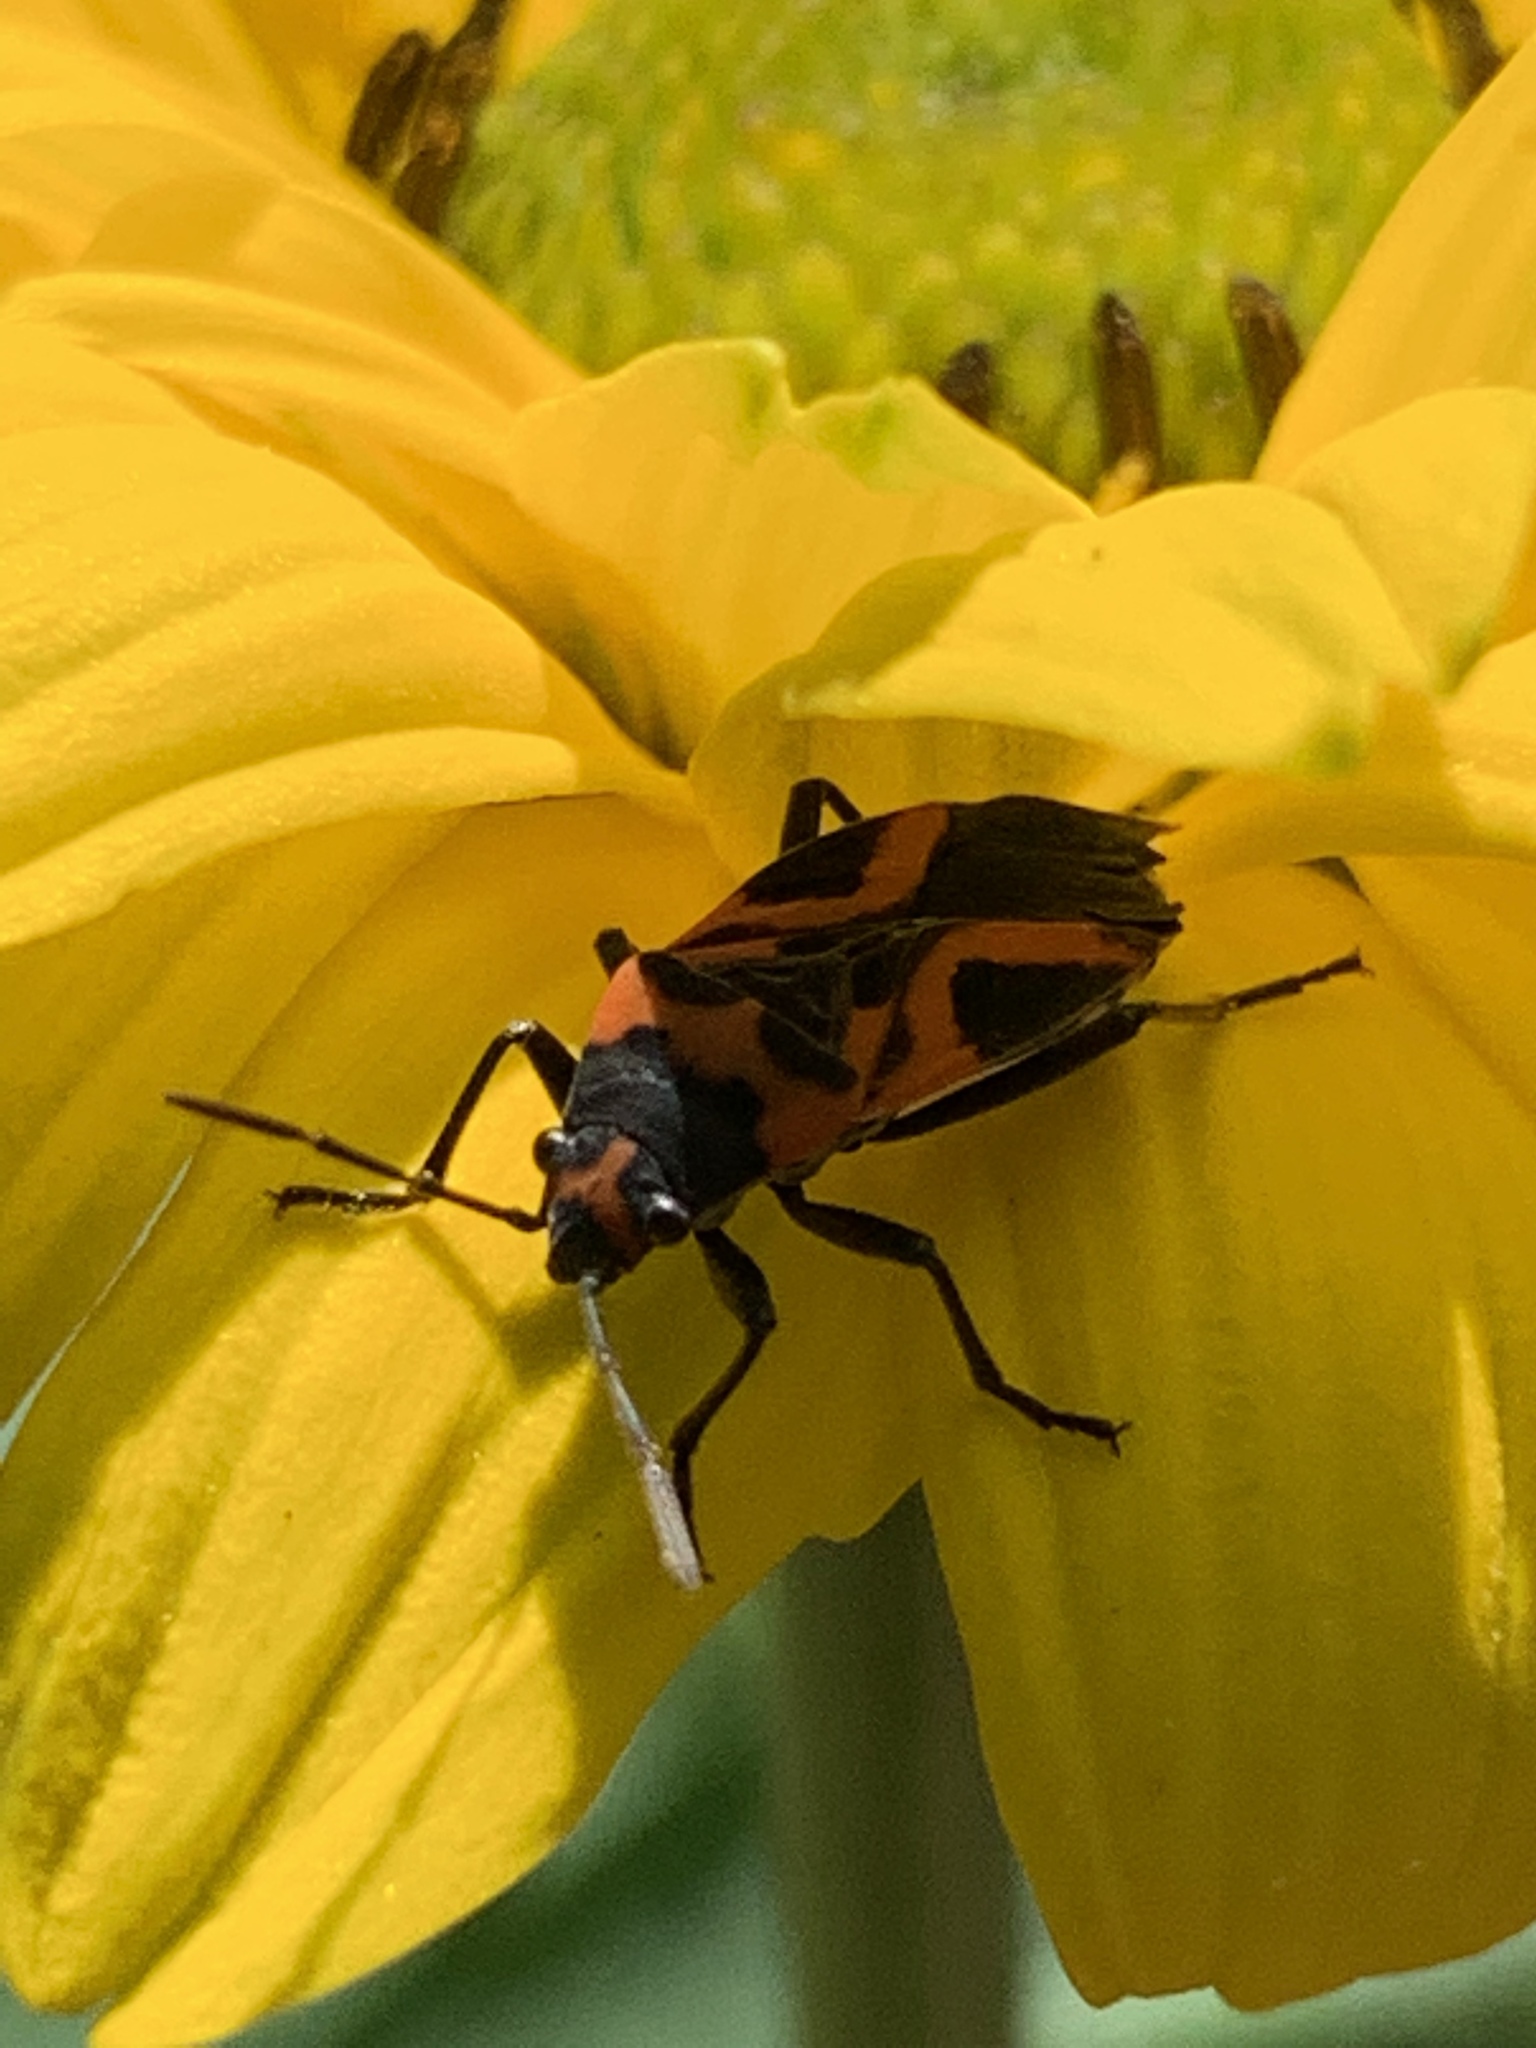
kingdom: Animalia
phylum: Arthropoda
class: Insecta
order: Hemiptera
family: Lygaeidae
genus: Lygaeus
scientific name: Lygaeus turcicus
